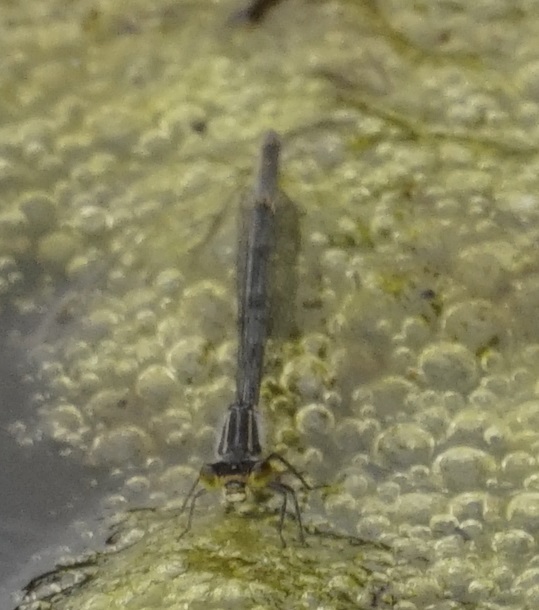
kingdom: Animalia
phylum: Arthropoda
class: Insecta
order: Odonata
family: Coenagrionidae
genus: Ischnura
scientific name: Ischnura heterosticta
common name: Common bluetail
